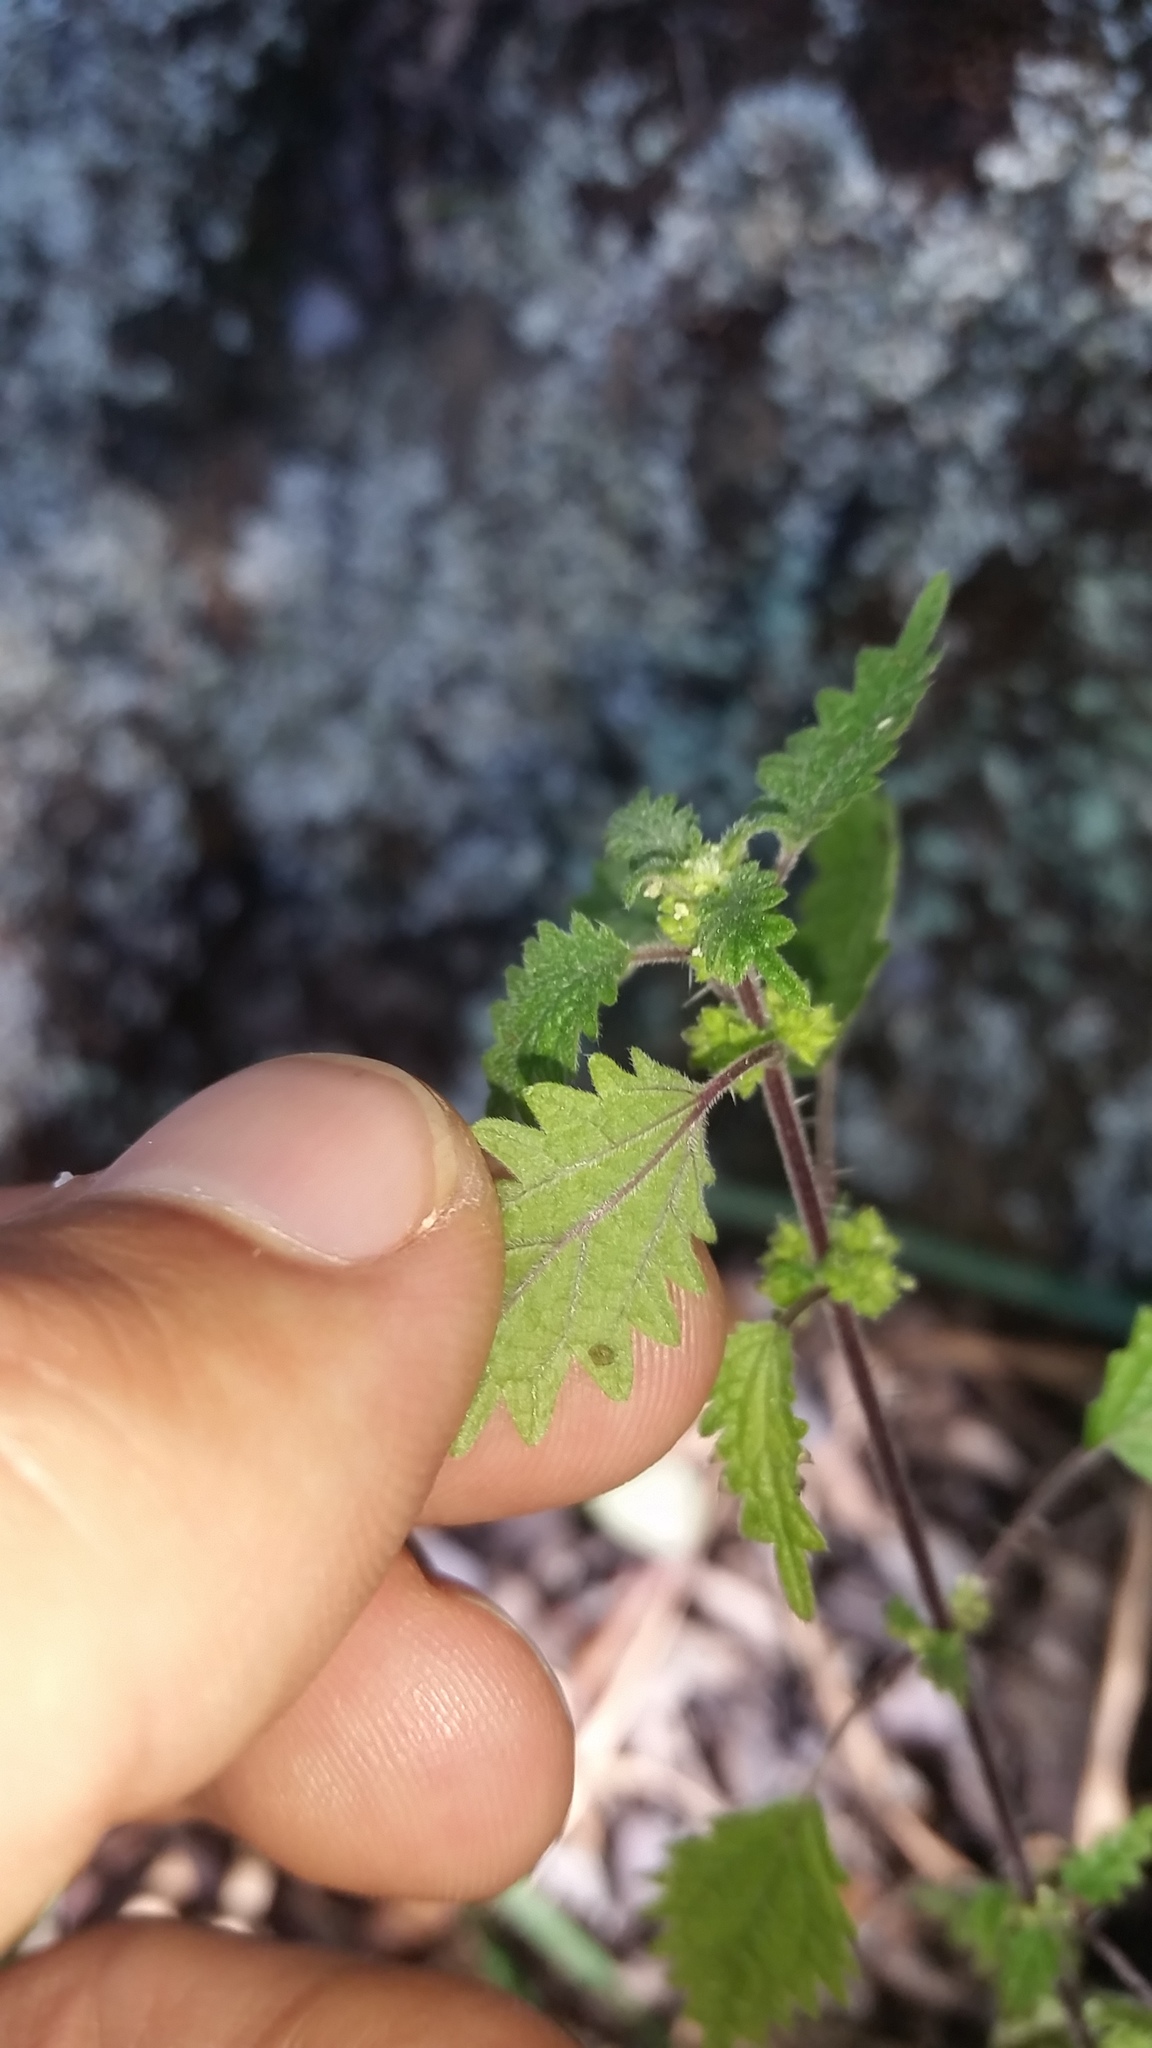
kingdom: Plantae
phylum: Tracheophyta
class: Magnoliopsida
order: Rosales
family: Urticaceae
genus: Hesperocnide
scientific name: Hesperocnide sandwicensis
